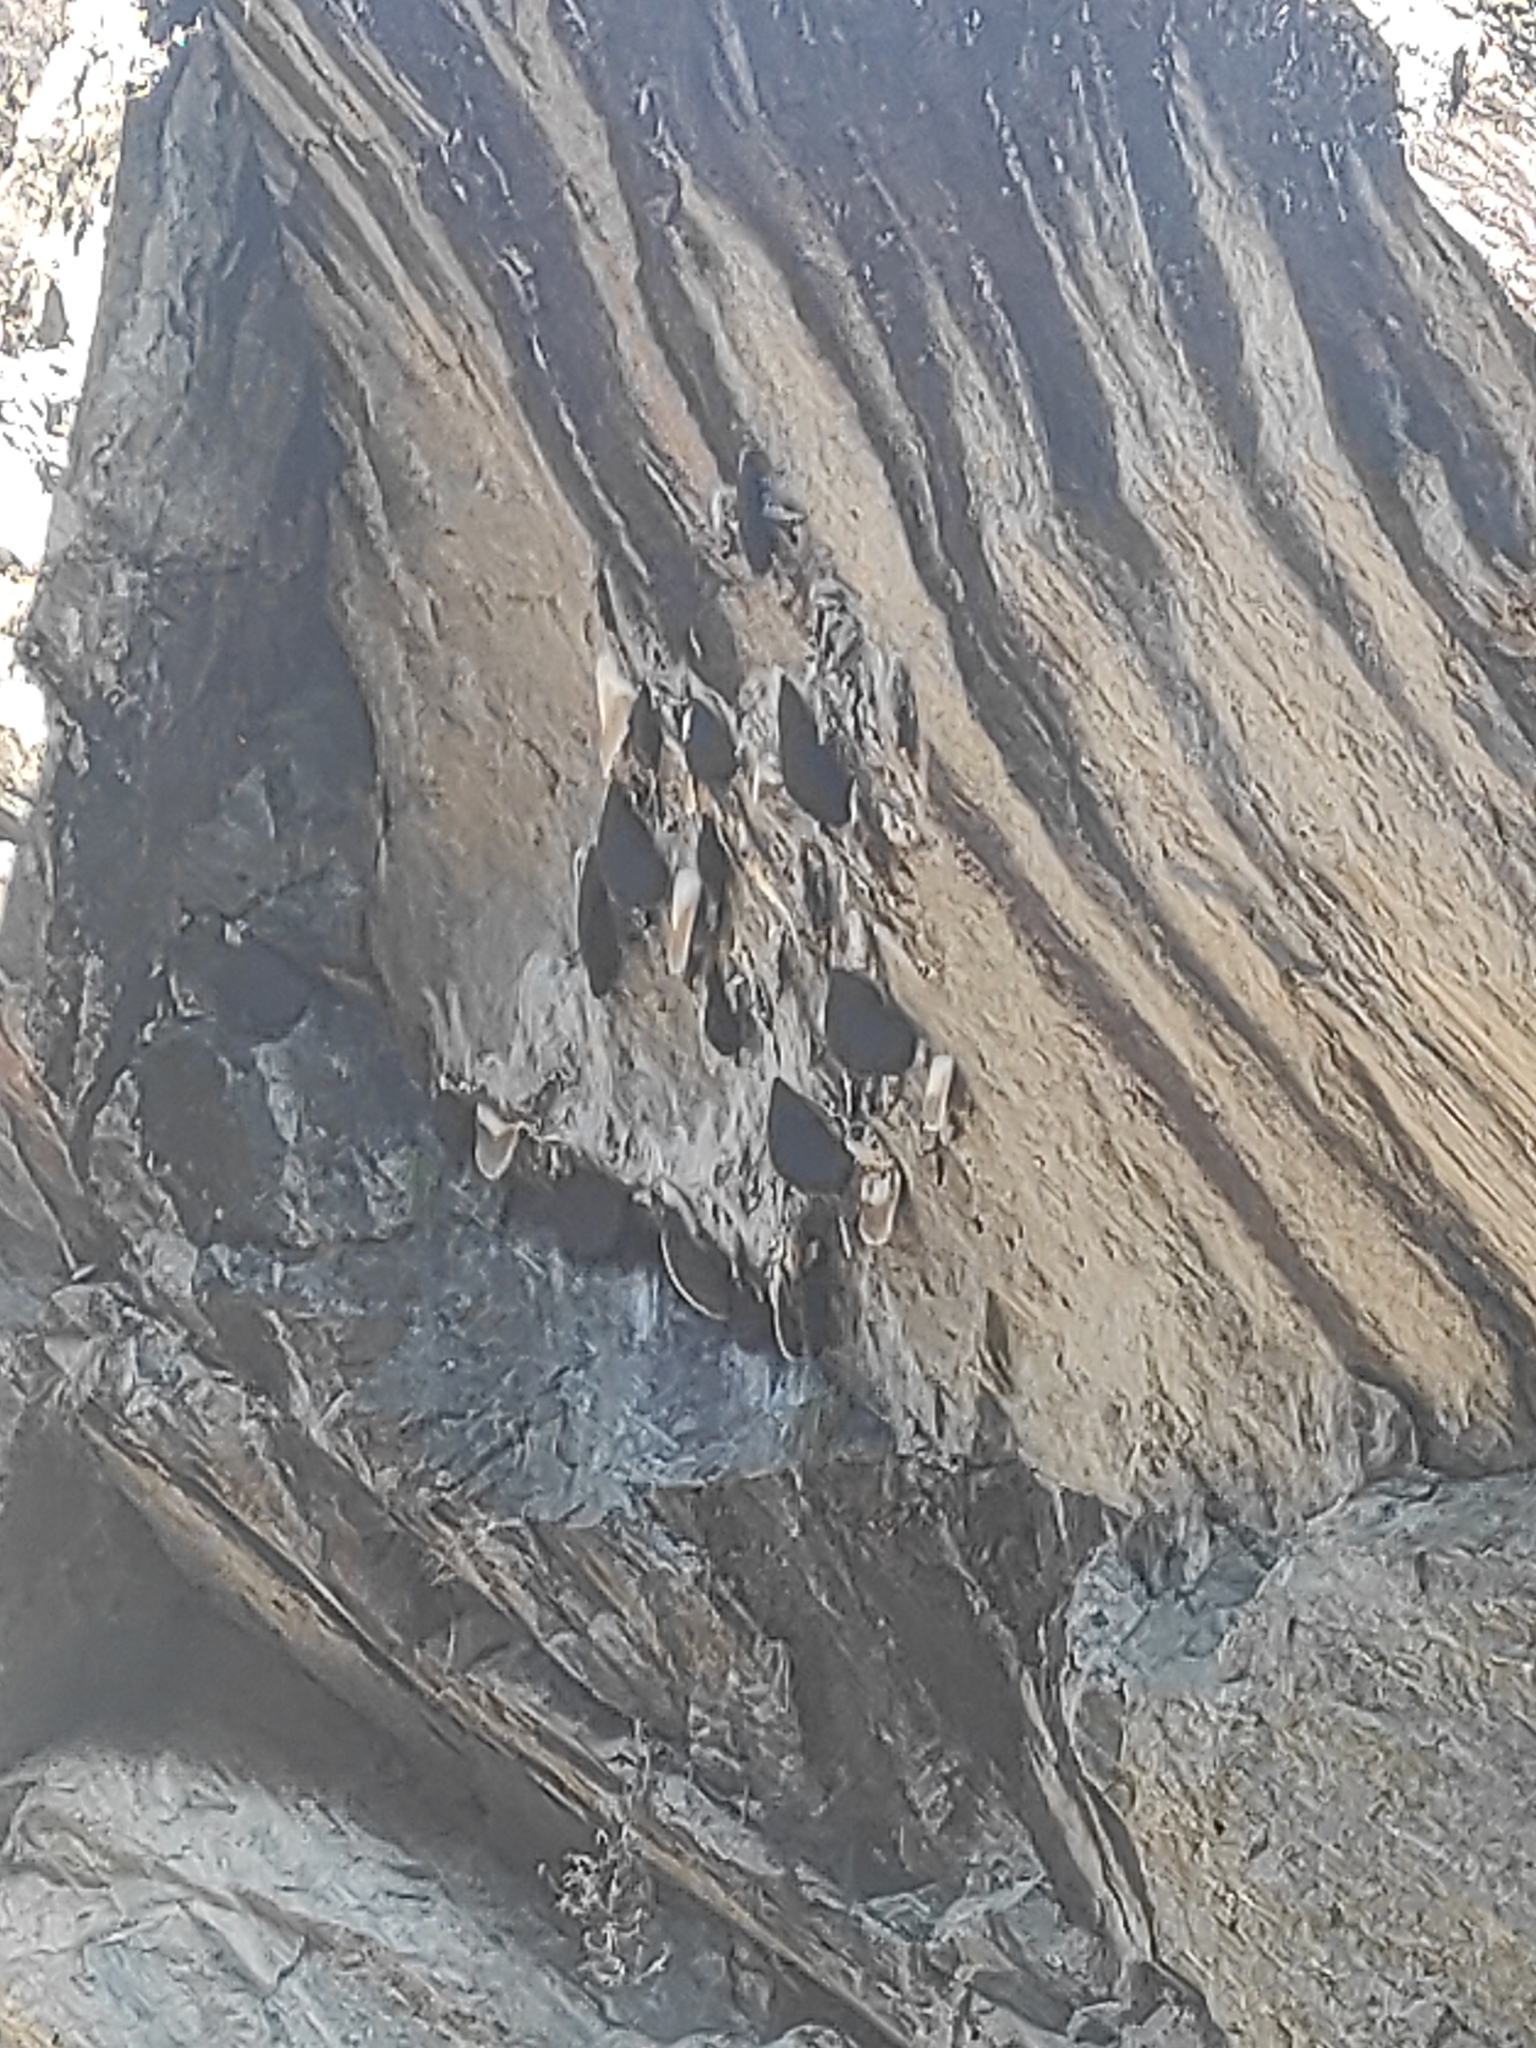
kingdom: Animalia
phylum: Arthropoda
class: Insecta
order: Hymenoptera
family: Apidae
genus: Apis
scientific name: Apis laboriosa
